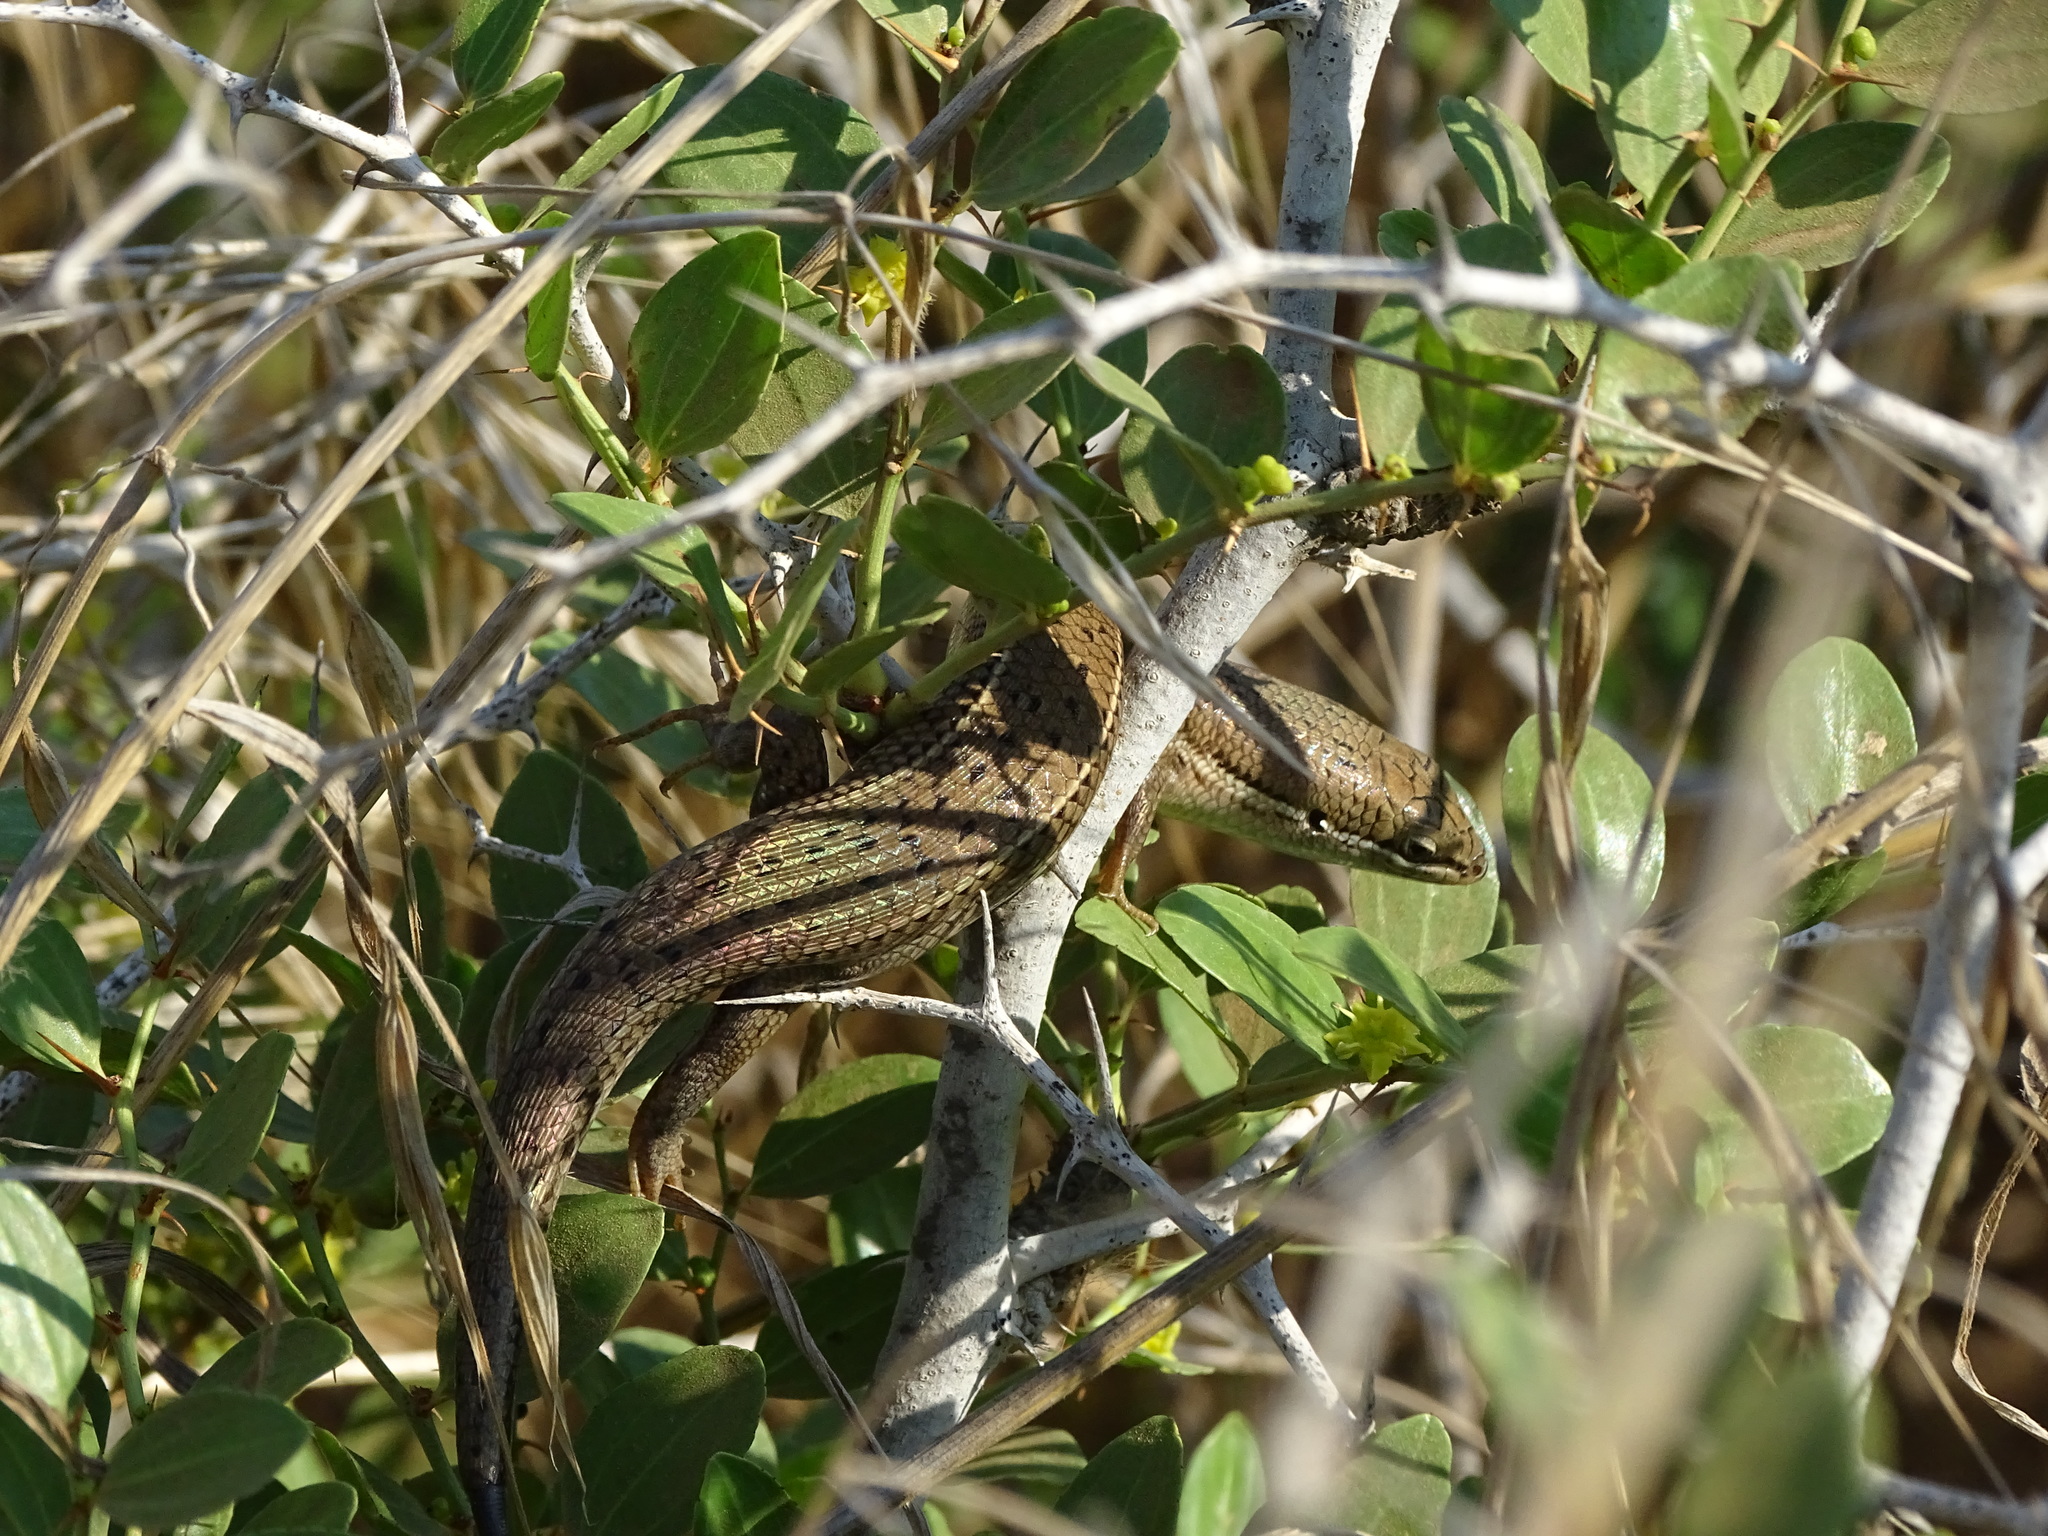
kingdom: Animalia
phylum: Chordata
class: Squamata
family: Scincidae
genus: Heremites
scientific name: Heremites vittatus
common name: Bridled mabuya
